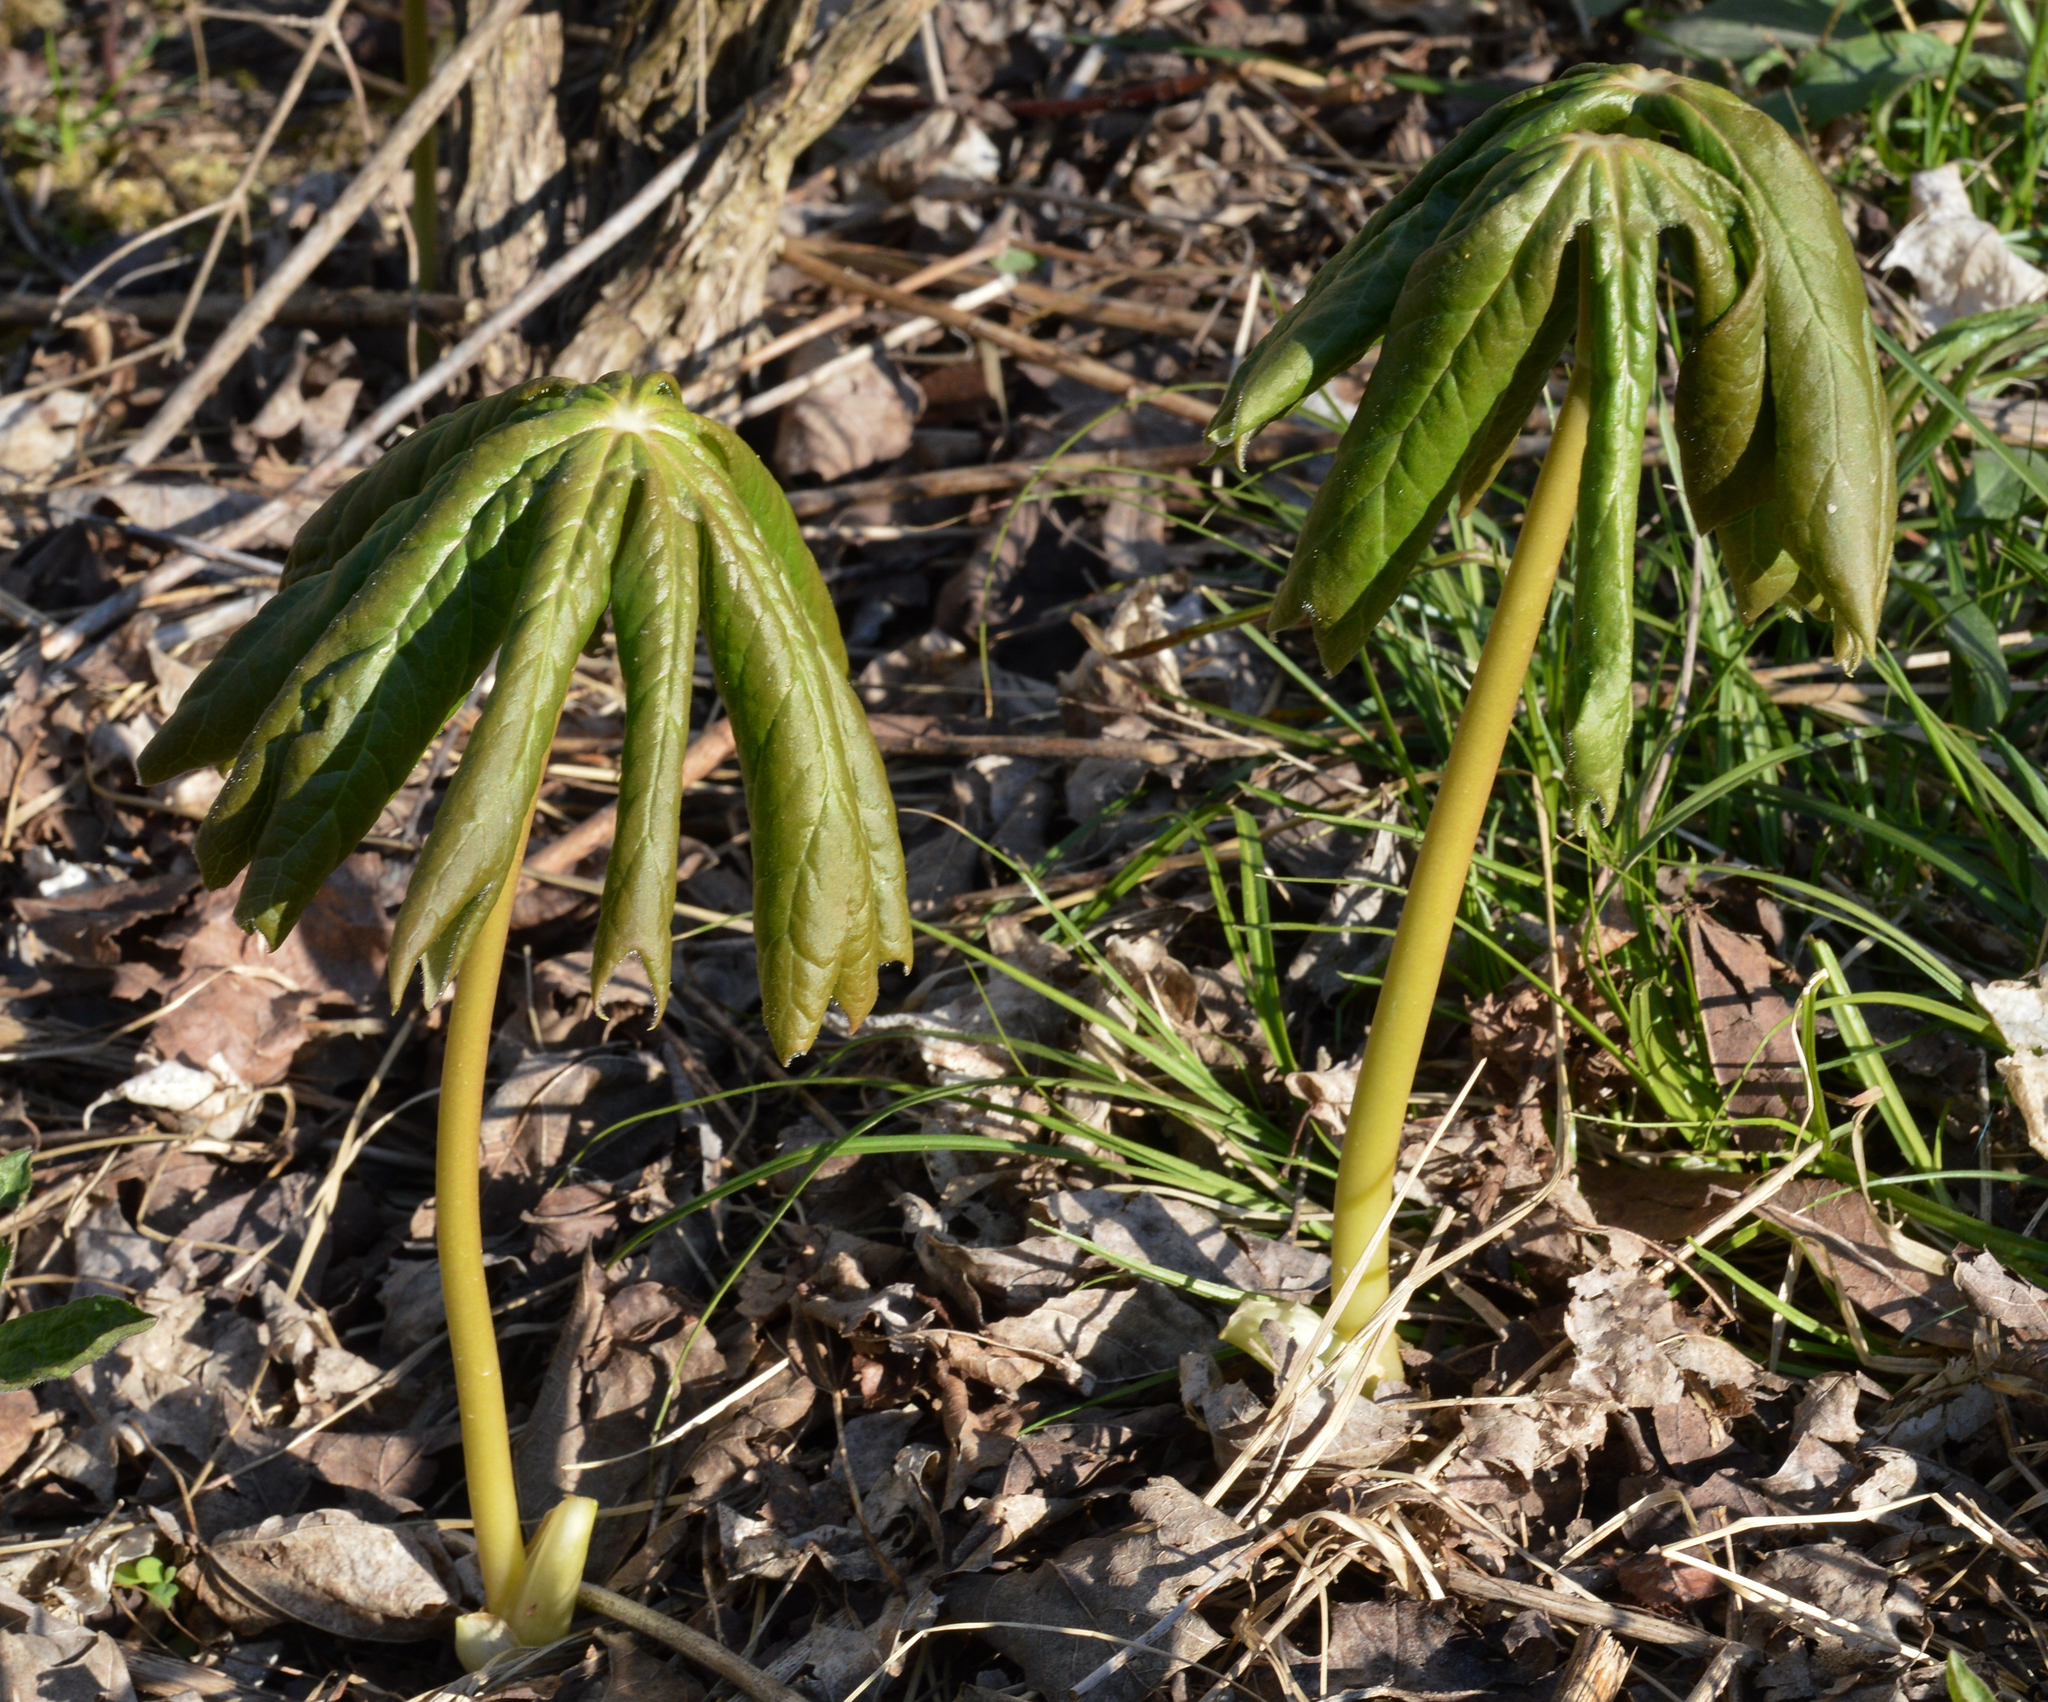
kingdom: Plantae
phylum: Tracheophyta
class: Magnoliopsida
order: Ranunculales
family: Berberidaceae
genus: Podophyllum
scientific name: Podophyllum peltatum
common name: Wild mandrake
